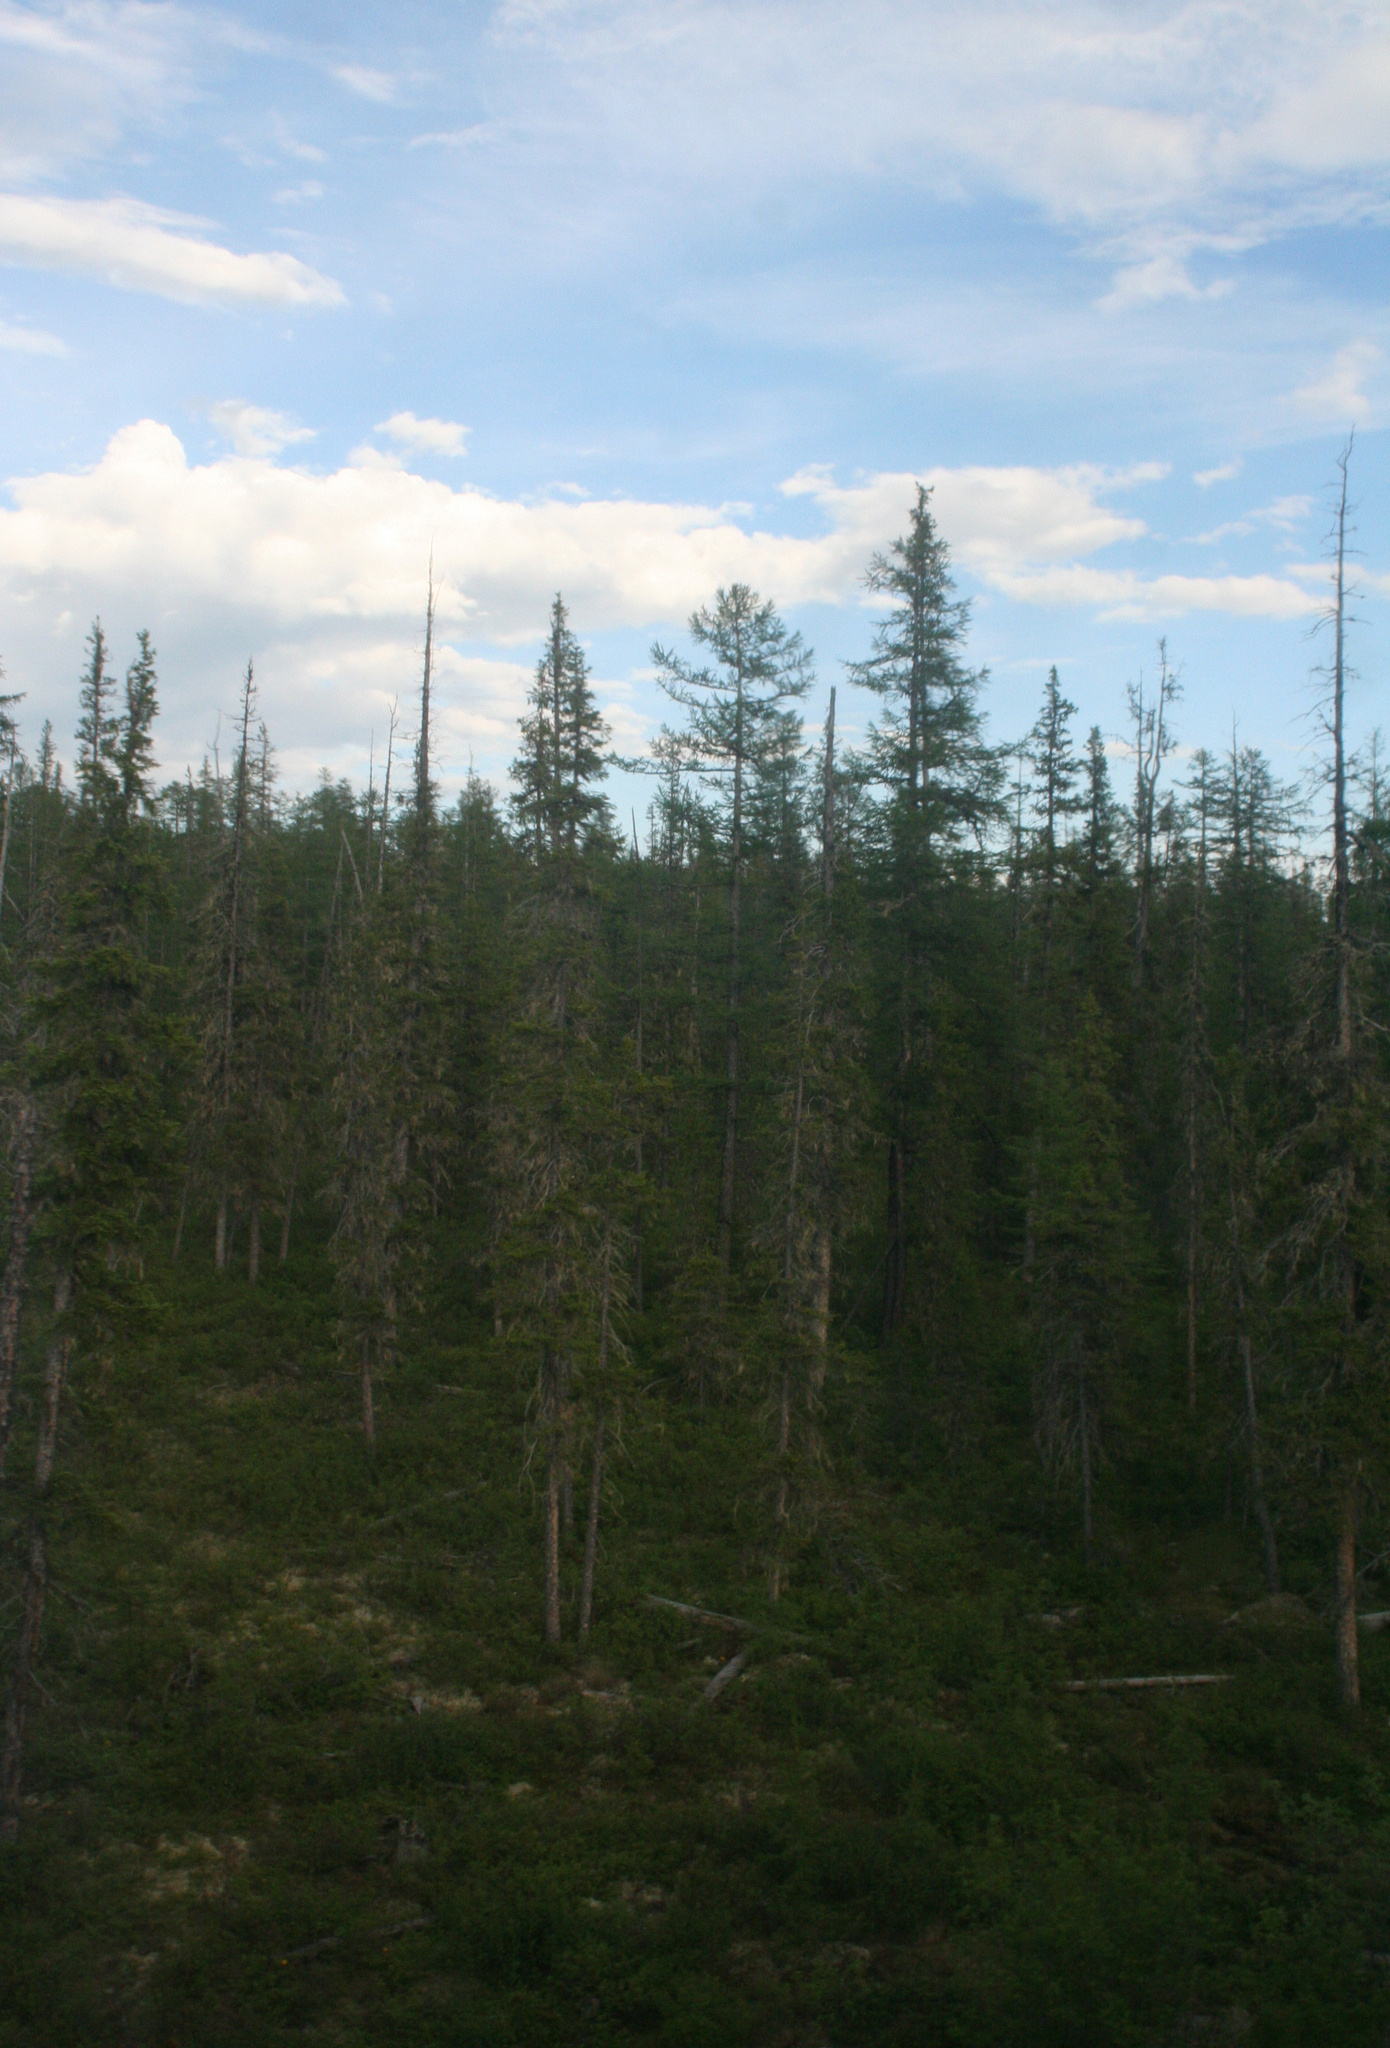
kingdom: Plantae
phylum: Tracheophyta
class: Pinopsida
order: Pinales
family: Pinaceae
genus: Picea
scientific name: Picea obovata
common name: Siberian spruce
